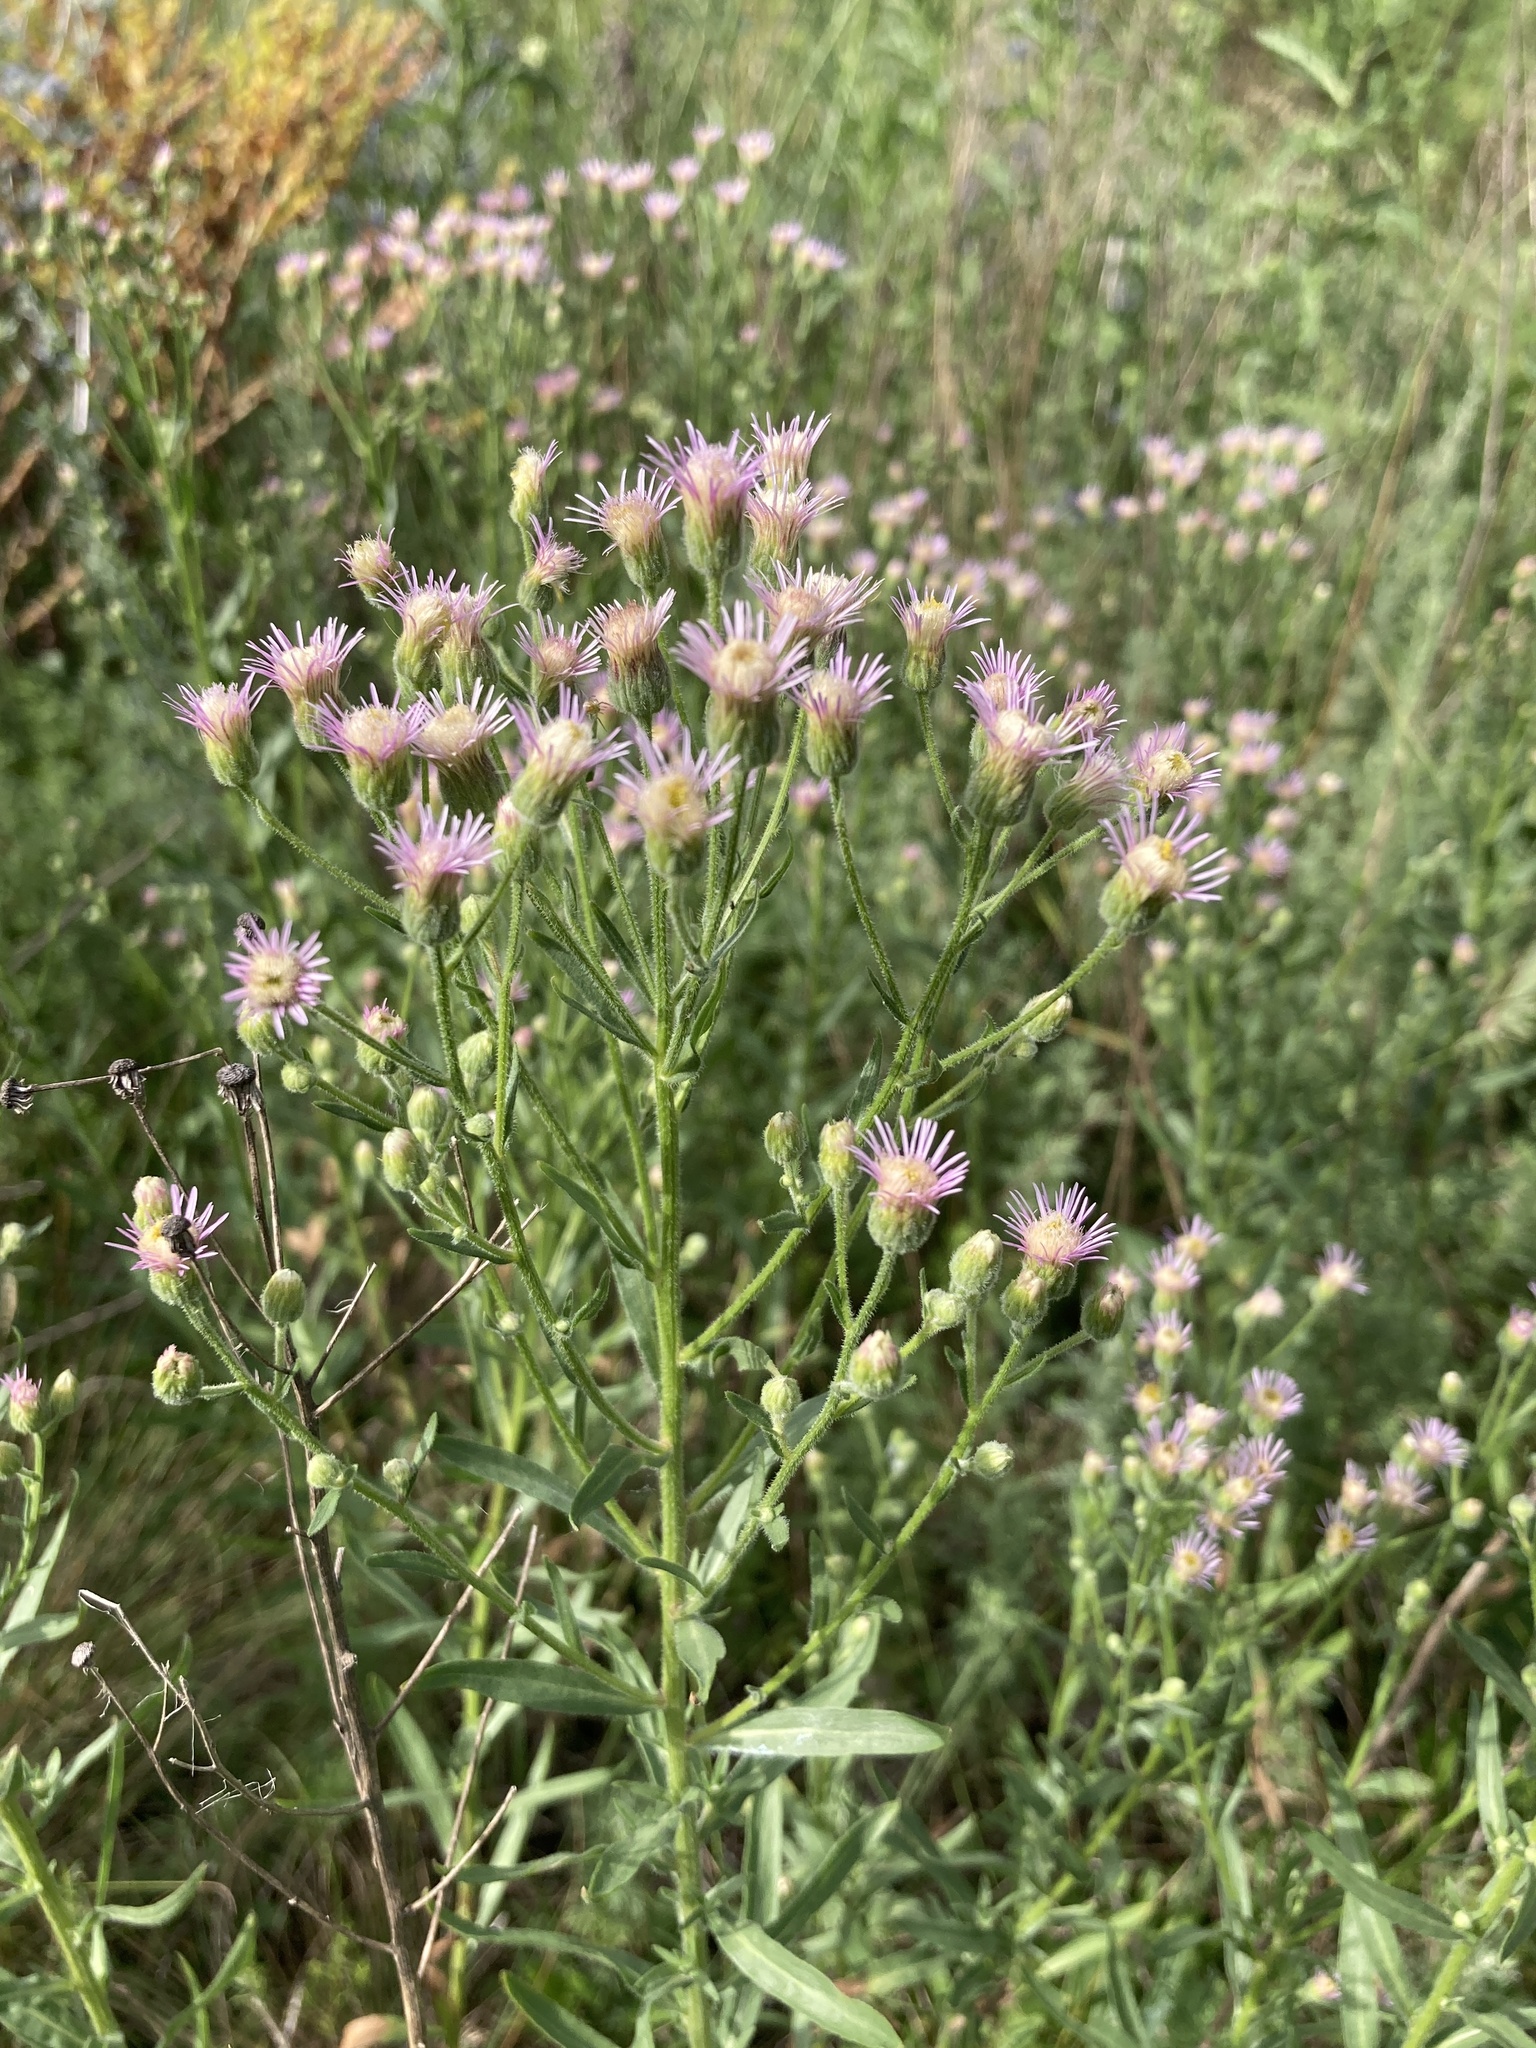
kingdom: Plantae
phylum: Tracheophyta
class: Magnoliopsida
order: Asterales
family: Asteraceae
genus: Erigeron
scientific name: Erigeron podolicus
